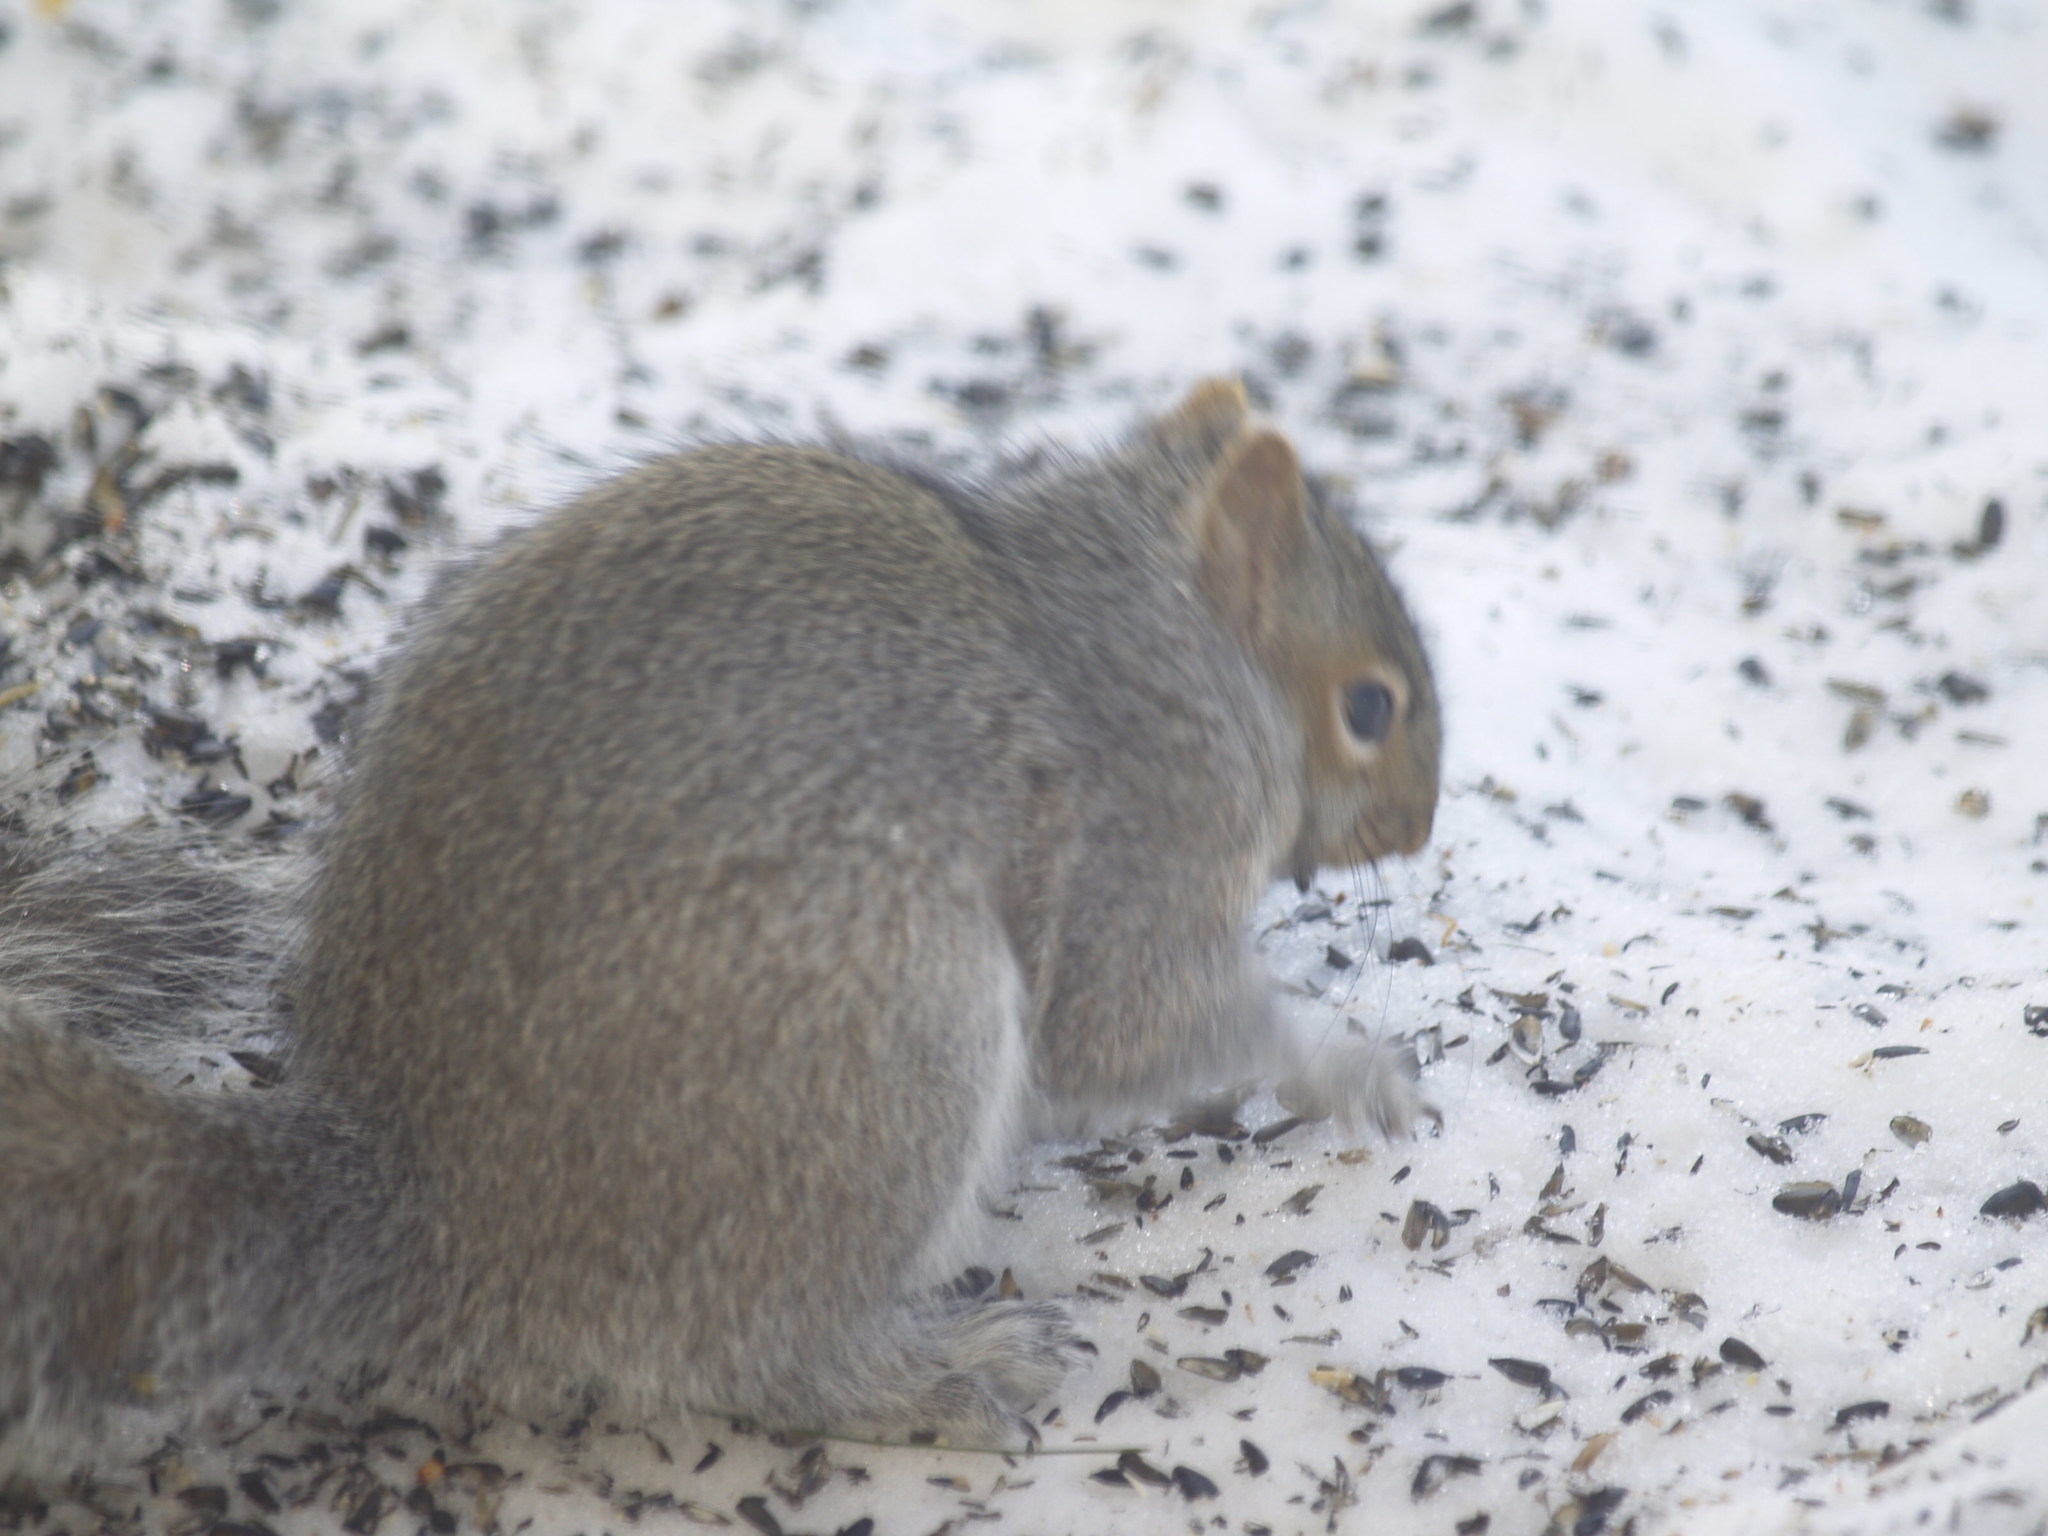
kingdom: Animalia
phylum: Chordata
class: Mammalia
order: Rodentia
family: Sciuridae
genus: Sciurus
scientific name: Sciurus carolinensis
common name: Eastern gray squirrel
